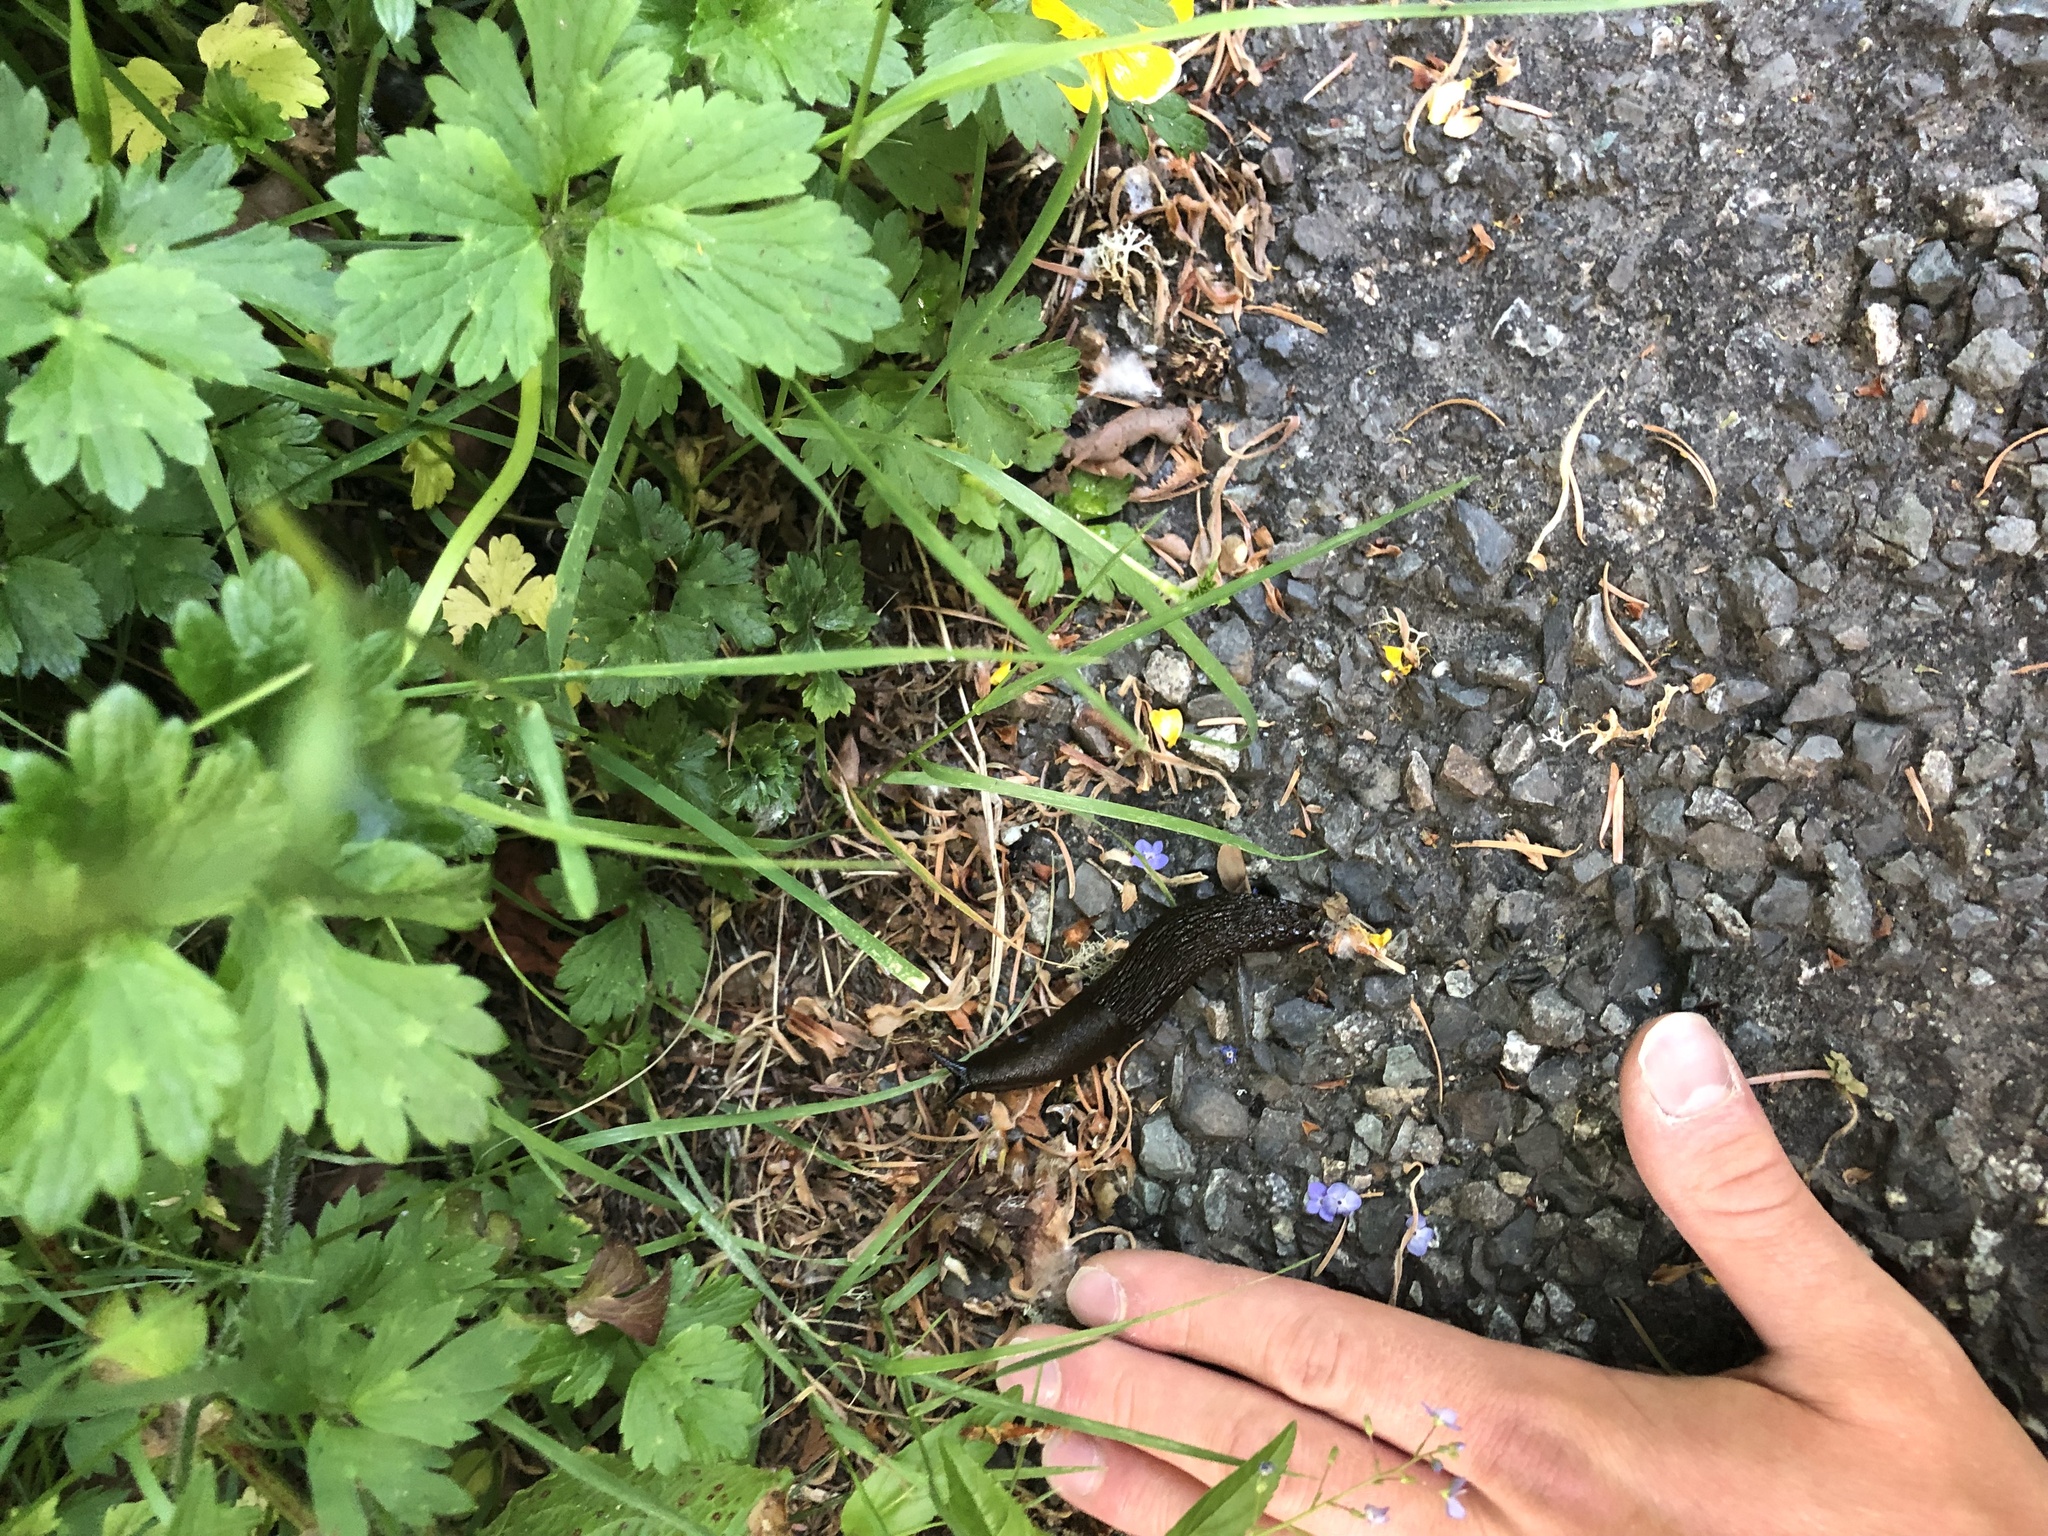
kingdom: Animalia
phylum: Mollusca
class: Gastropoda
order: Stylommatophora
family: Arionidae
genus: Arion
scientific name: Arion
